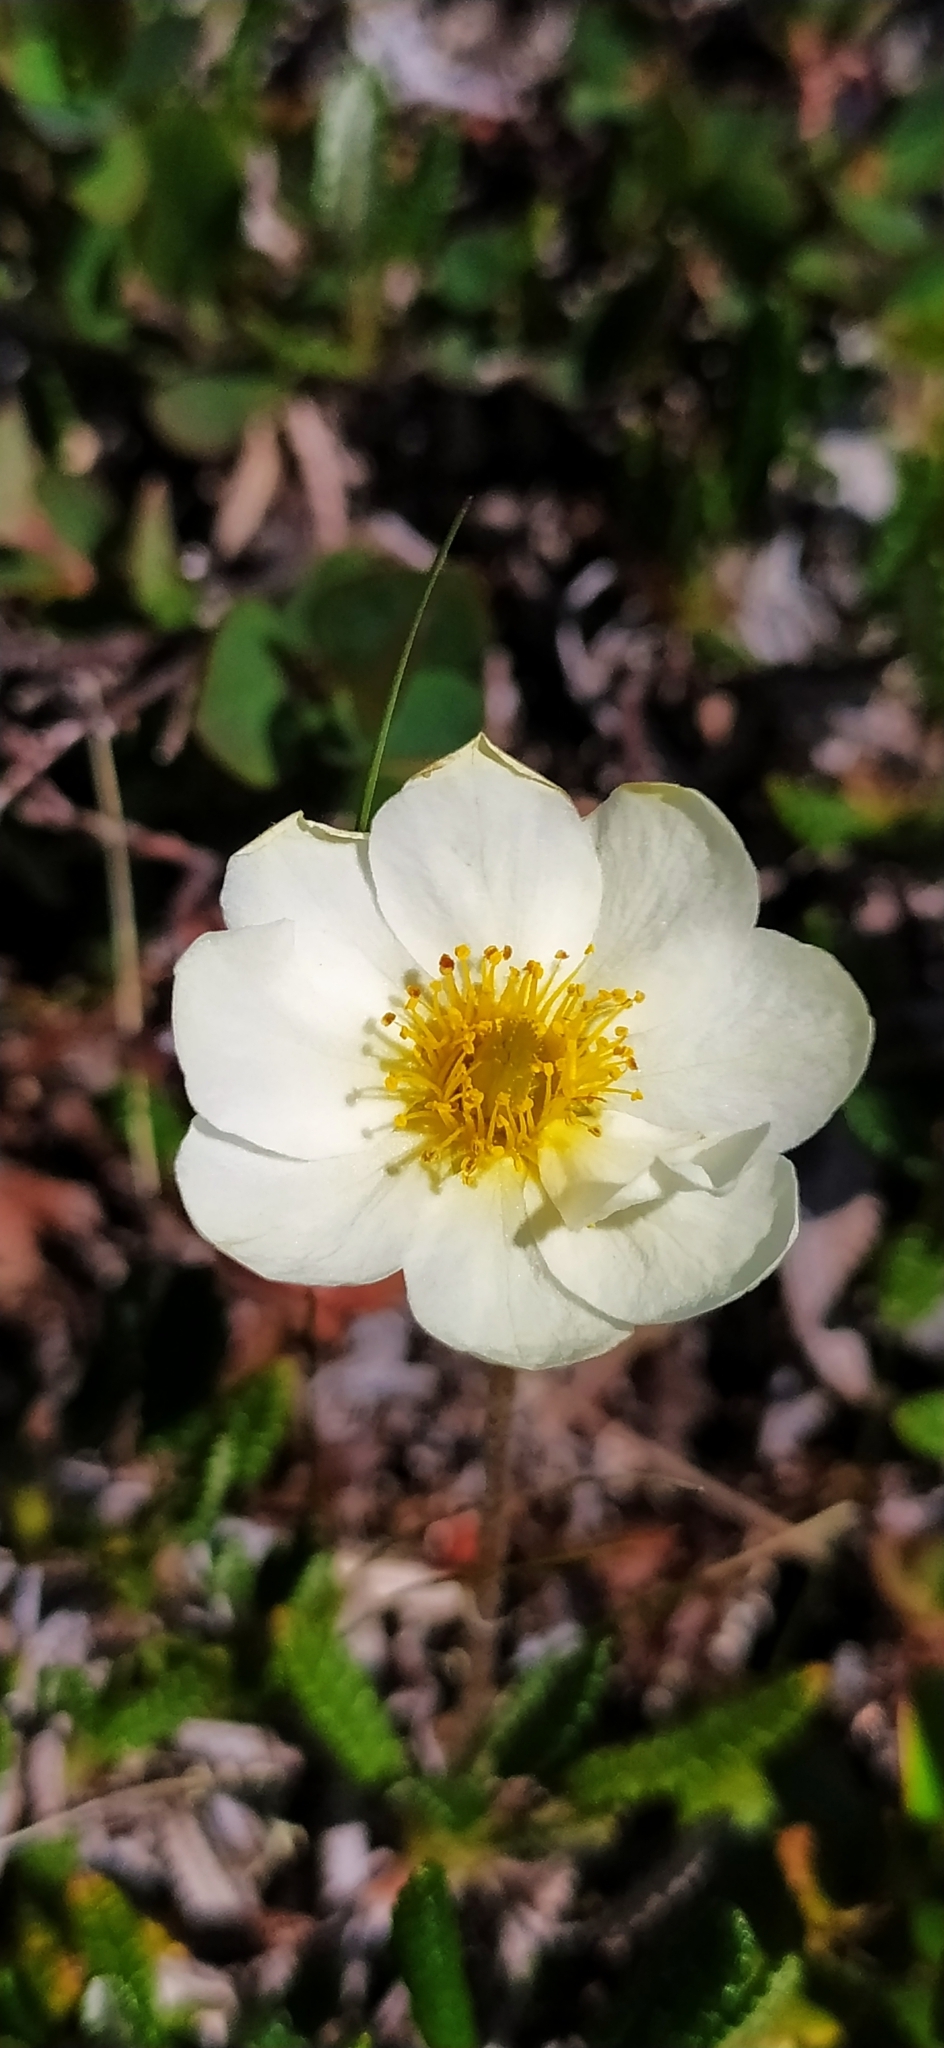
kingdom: Plantae
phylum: Tracheophyta
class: Magnoliopsida
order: Rosales
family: Rosaceae
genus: Dryas
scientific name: Dryas octopetala
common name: Eight-petal mountain-avens
